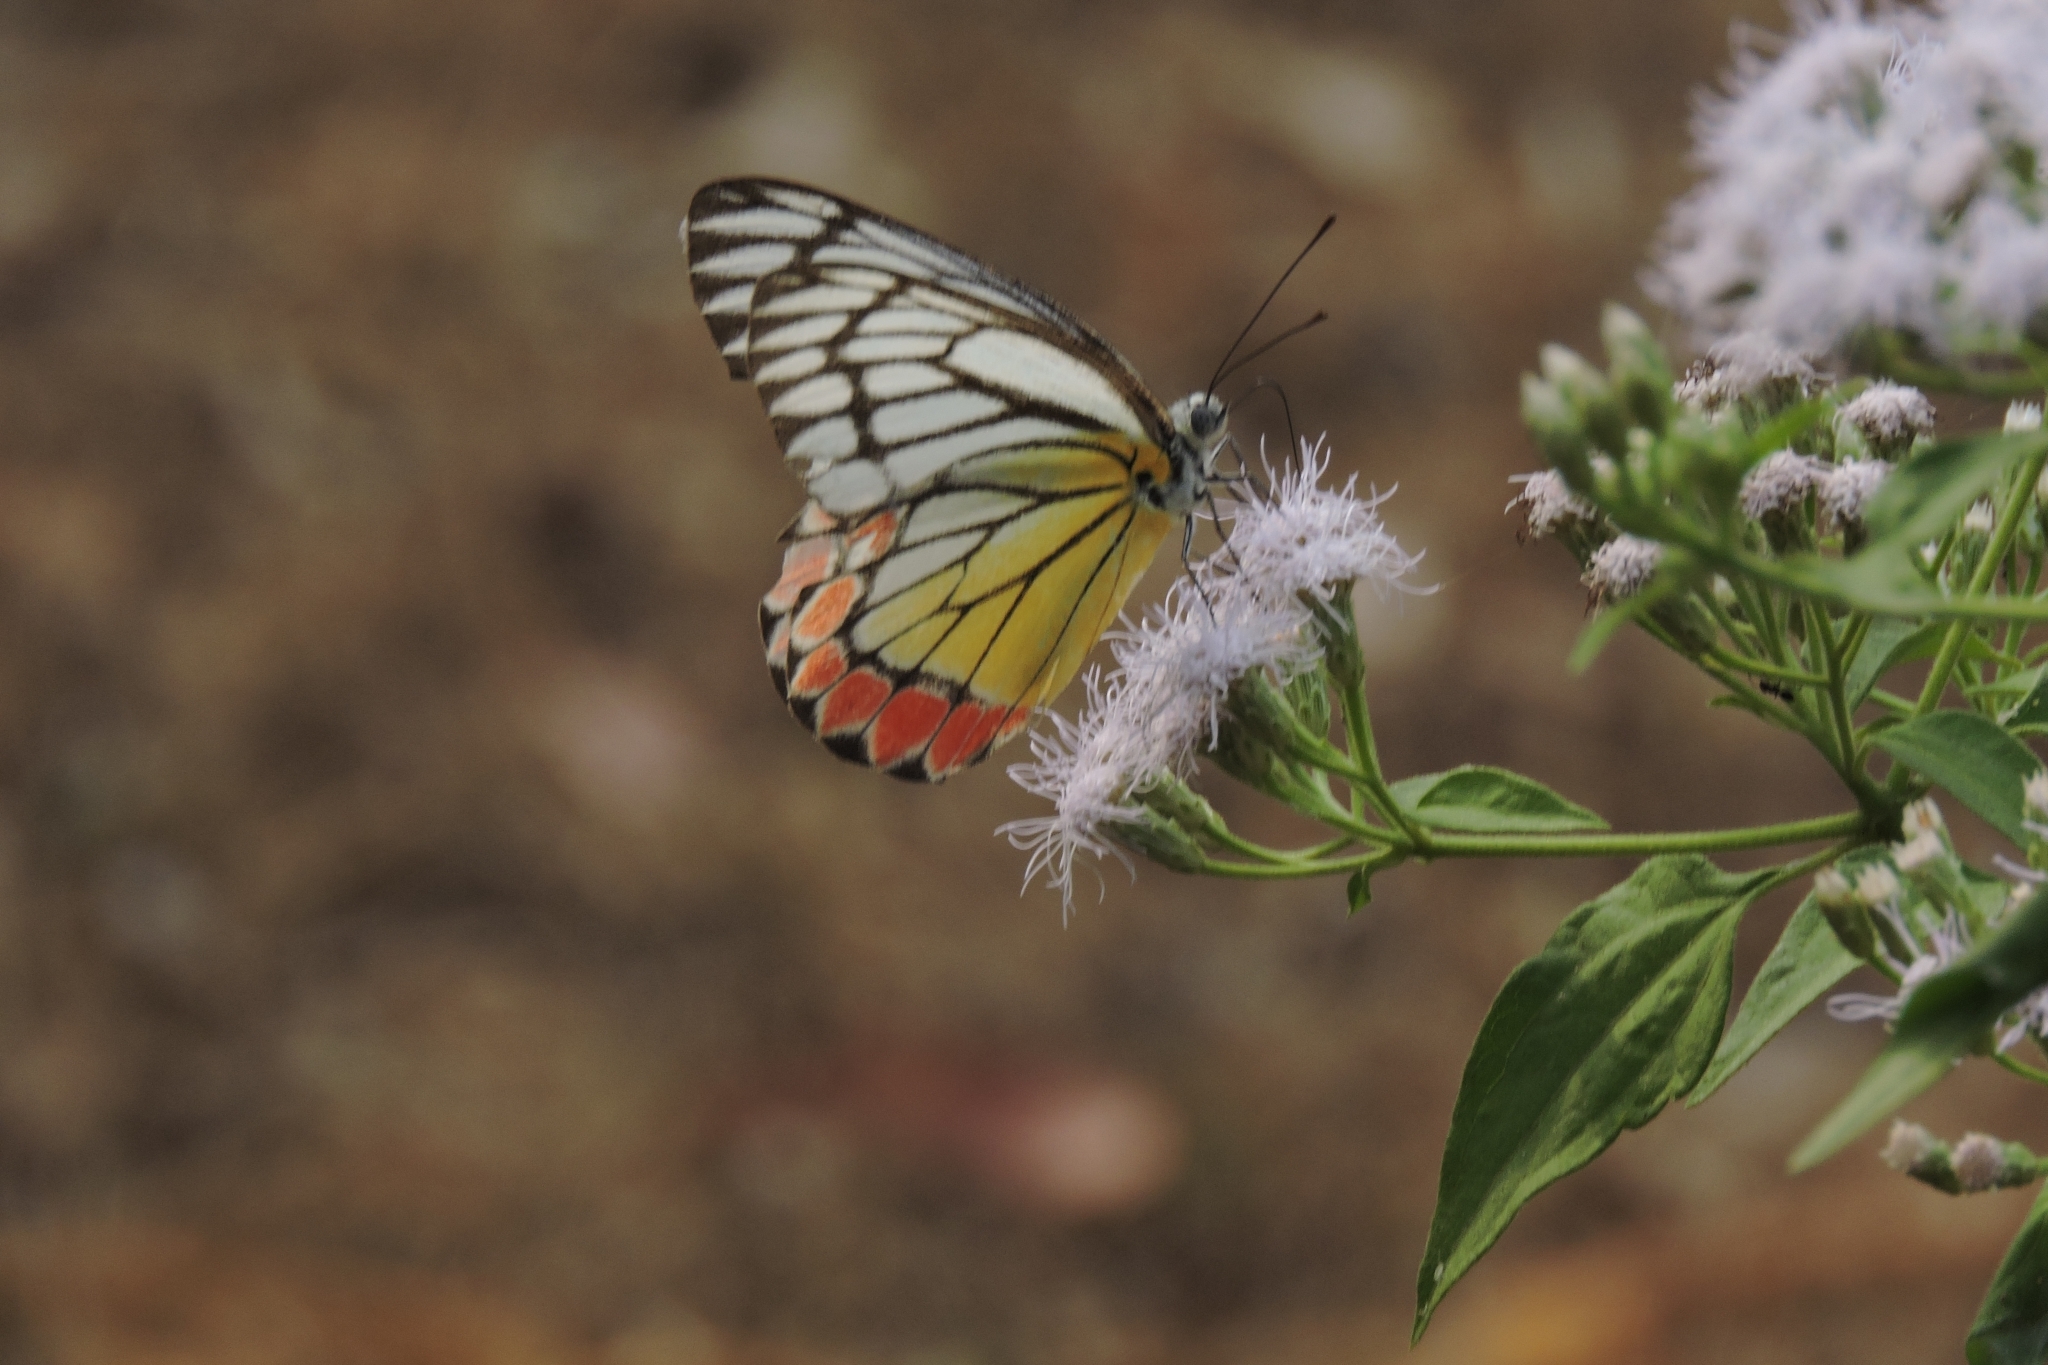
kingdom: Animalia
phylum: Arthropoda
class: Insecta
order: Lepidoptera
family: Pieridae
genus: Delias
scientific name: Delias eucharis
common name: Common jezebel
